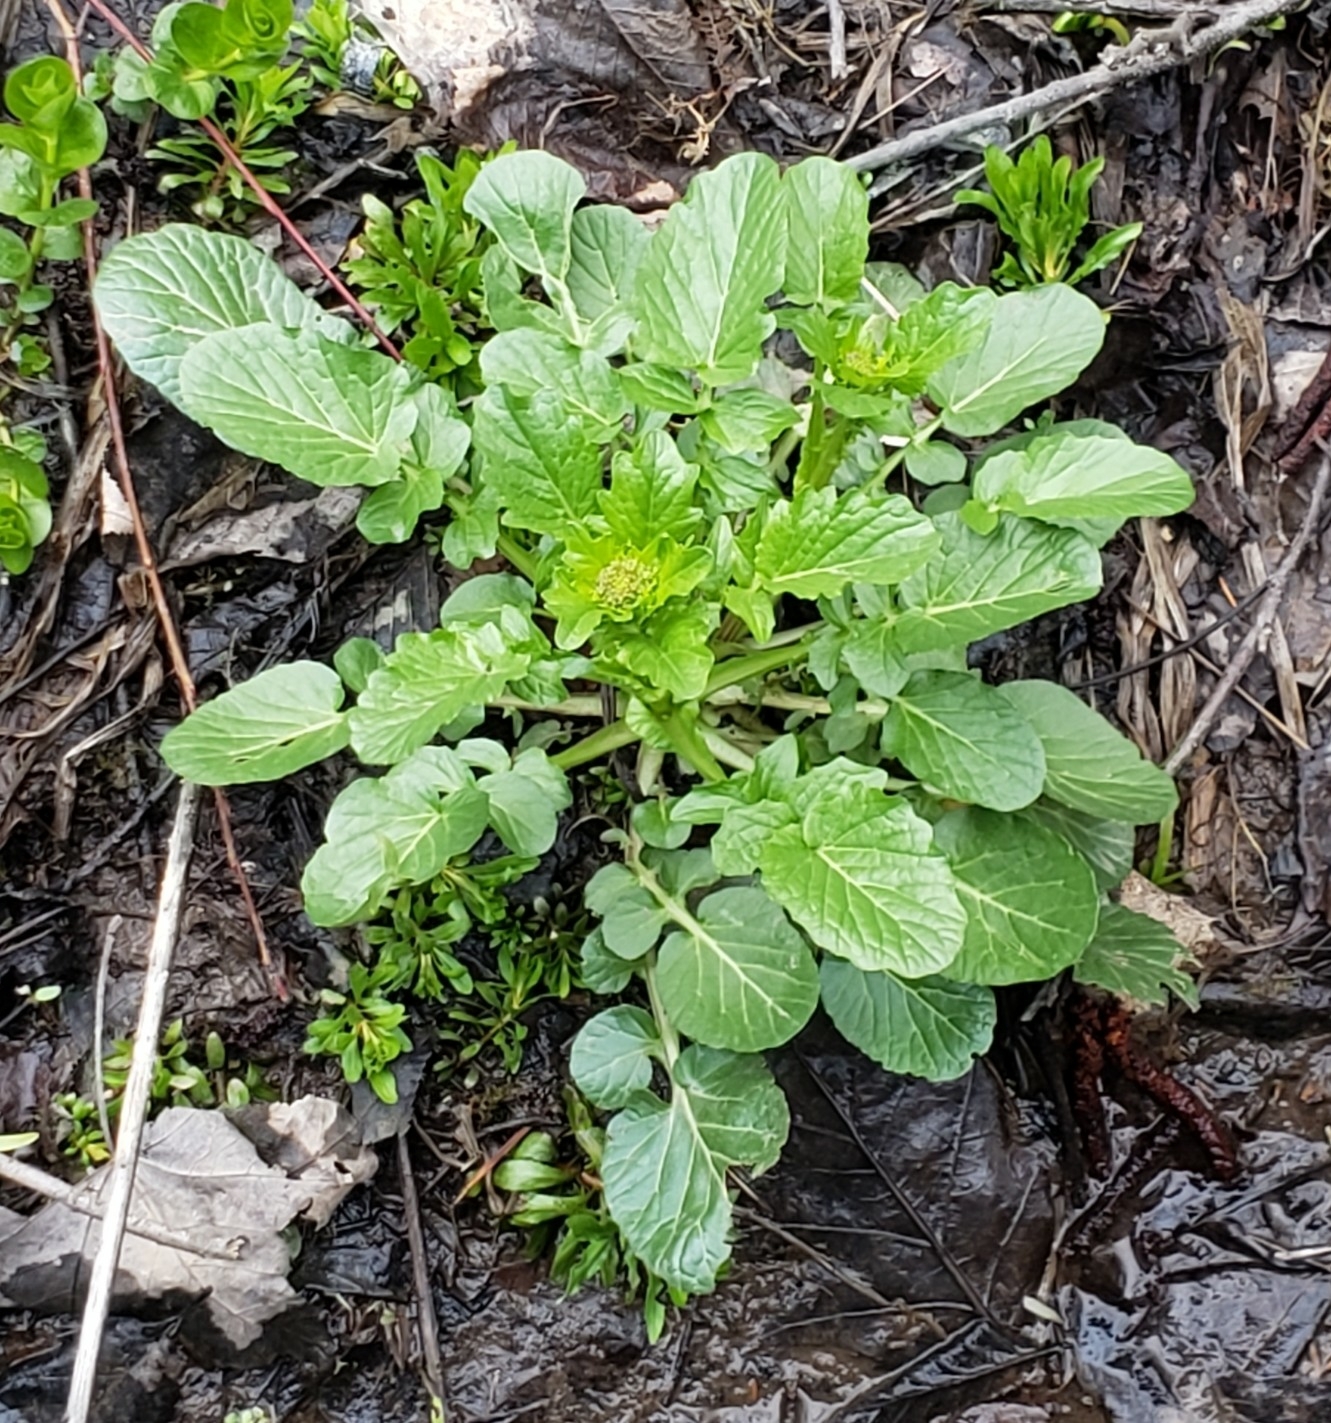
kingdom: Plantae
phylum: Tracheophyta
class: Magnoliopsida
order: Brassicales
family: Brassicaceae
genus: Barbarea
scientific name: Barbarea vulgaris
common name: Cressy-greens
